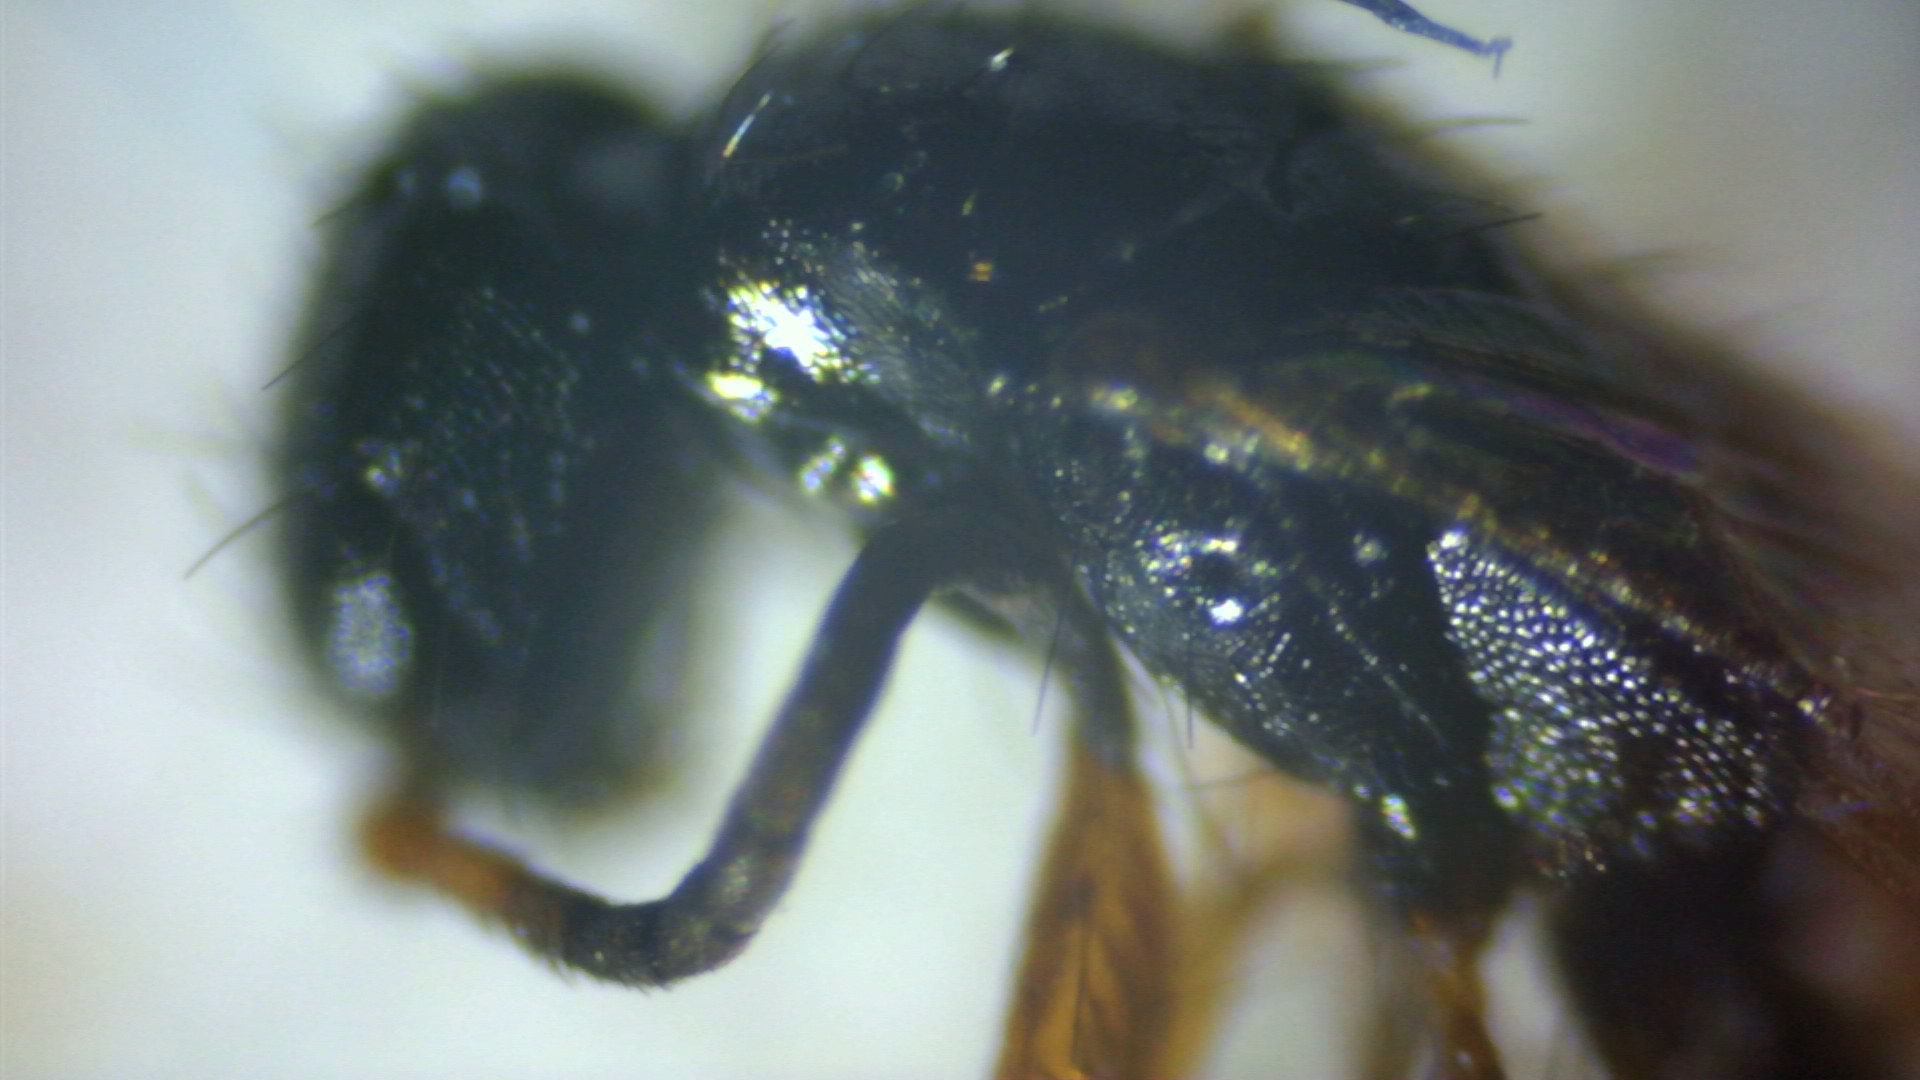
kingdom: Animalia
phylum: Arthropoda
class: Insecta
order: Hymenoptera
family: Bethylidae
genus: Laelius
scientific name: Laelius pedatus
